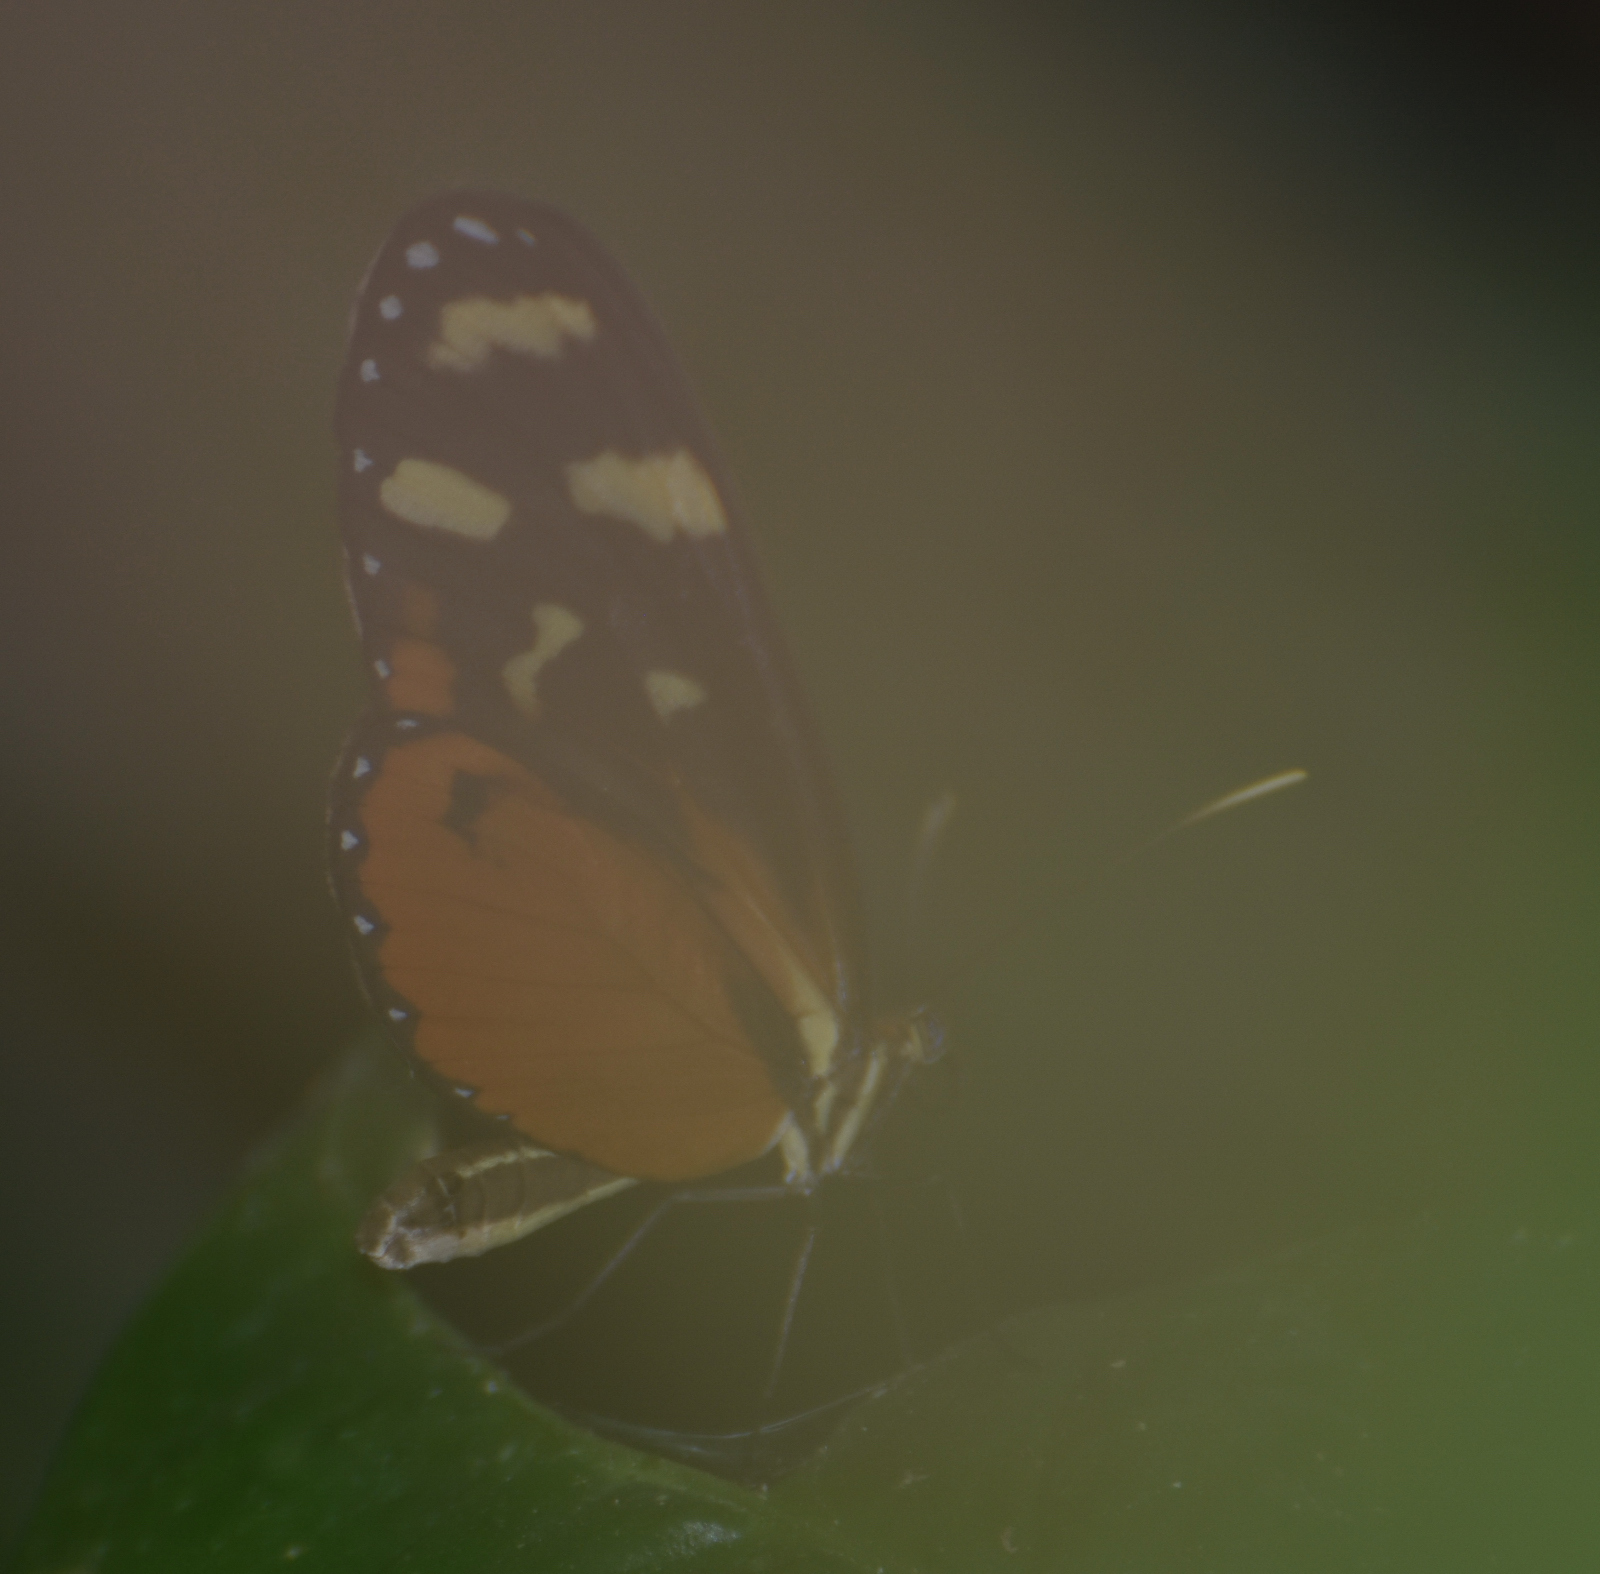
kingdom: Animalia
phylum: Arthropoda
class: Insecta
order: Lepidoptera
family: Nymphalidae
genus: Mechanitis
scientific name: Mechanitis polymnia
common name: Disturbed tigerwing
